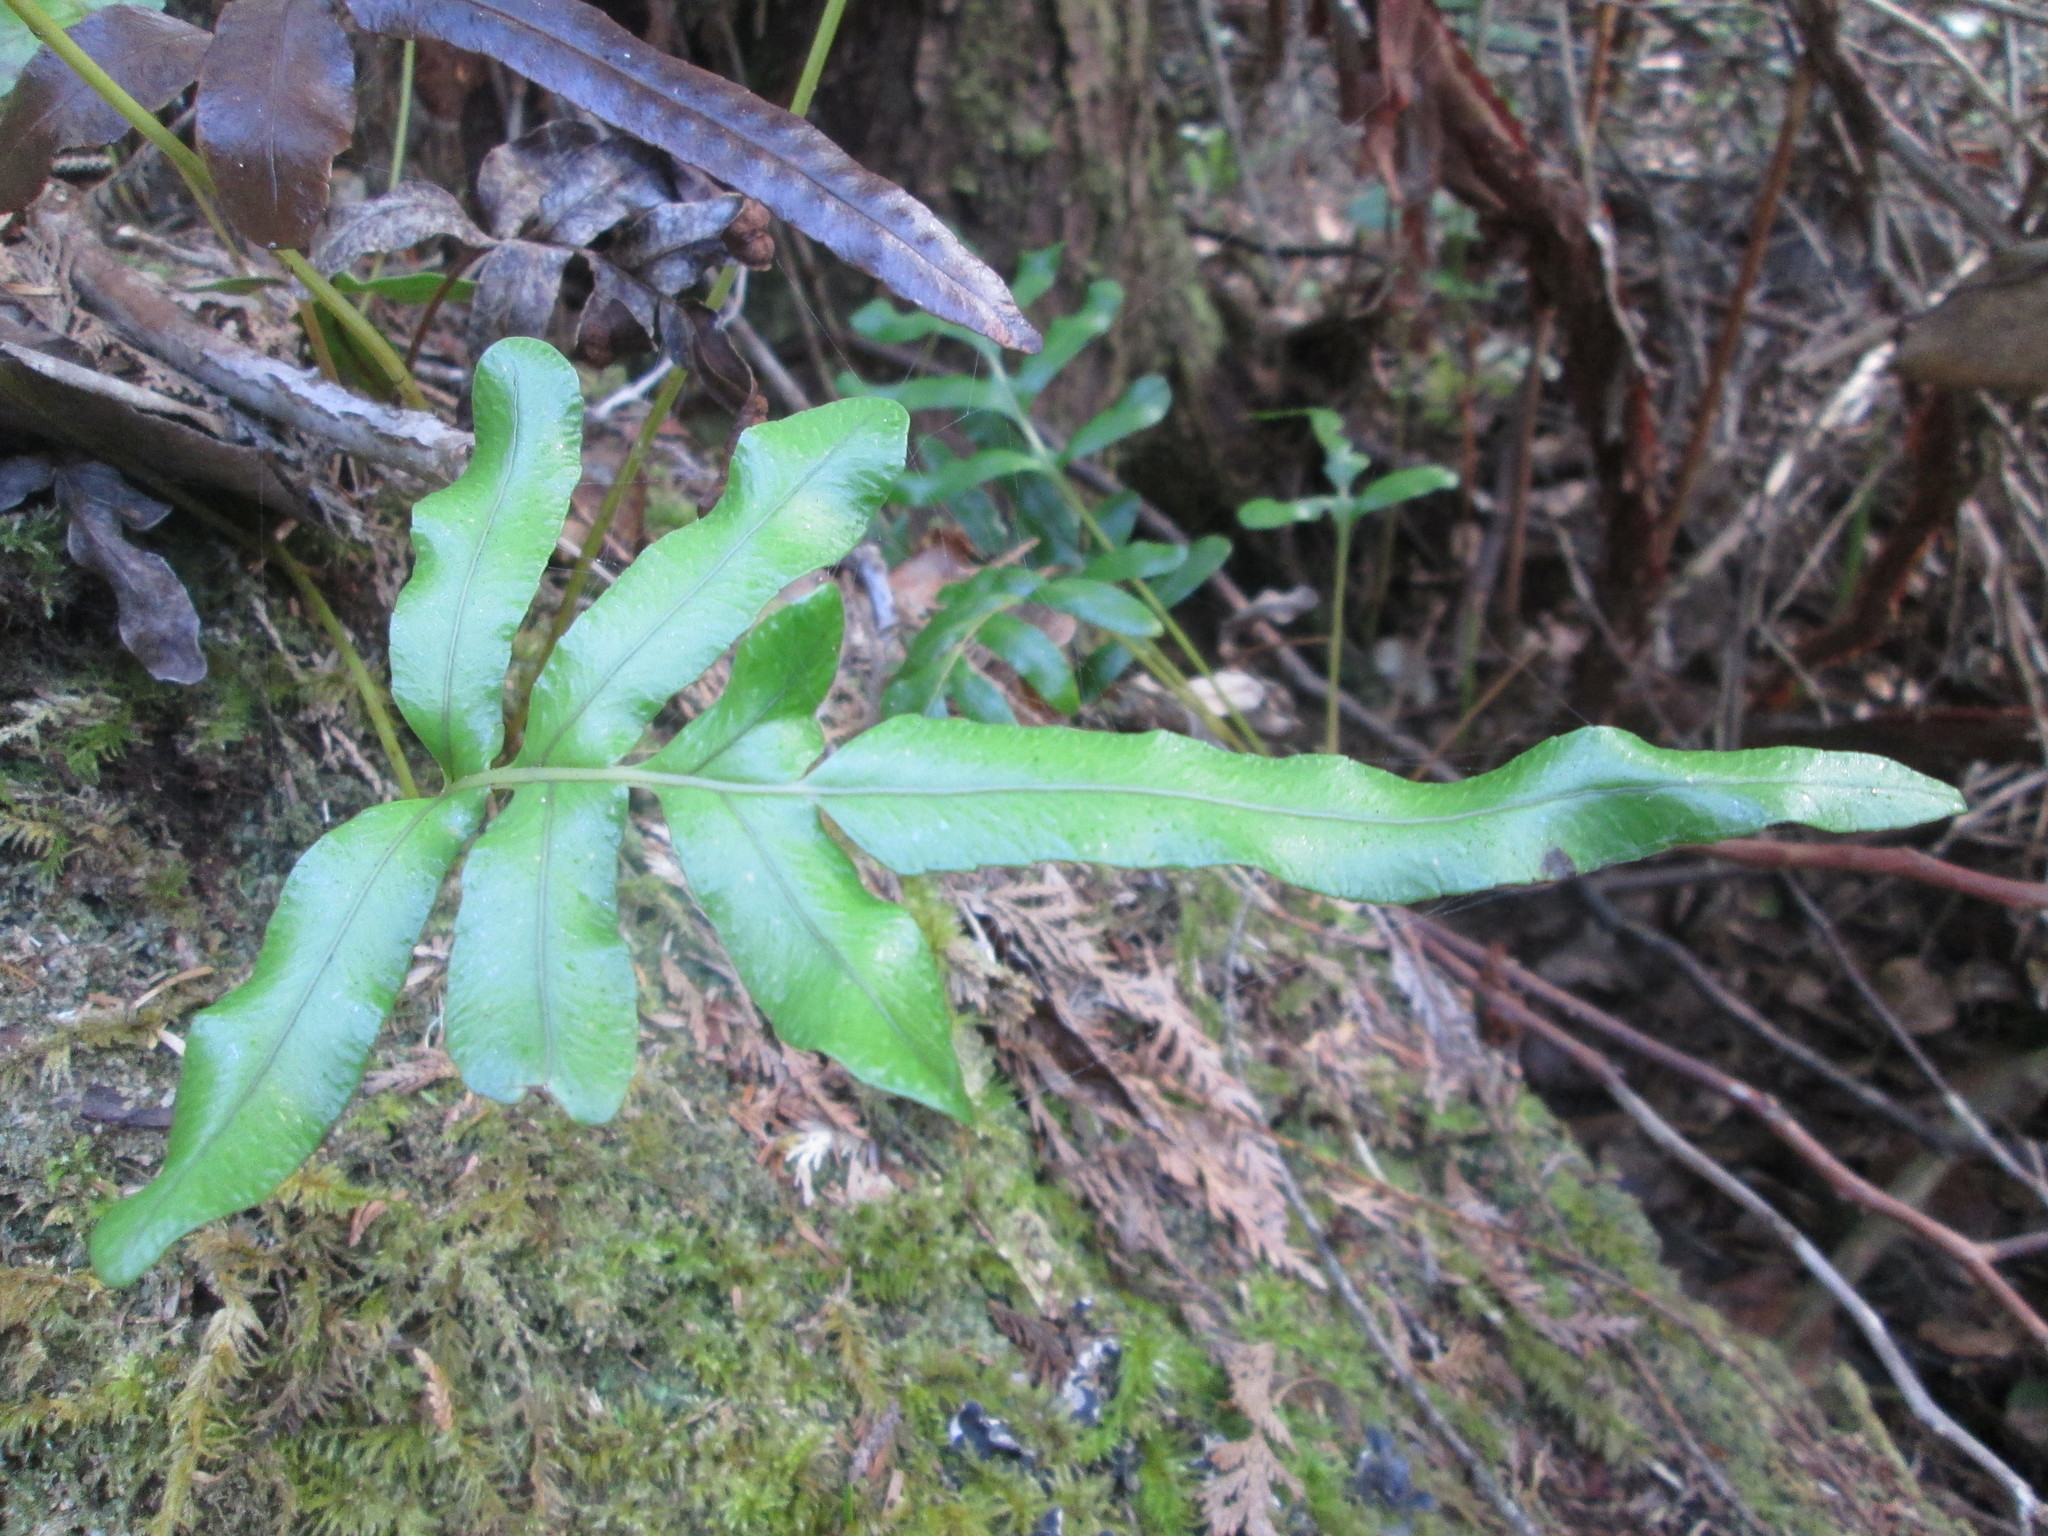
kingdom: Plantae
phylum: Tracheophyta
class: Polypodiopsida
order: Polypodiales
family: Polypodiaceae
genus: Polypodium
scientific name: Polypodium scouleri
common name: Scouler's polypody
